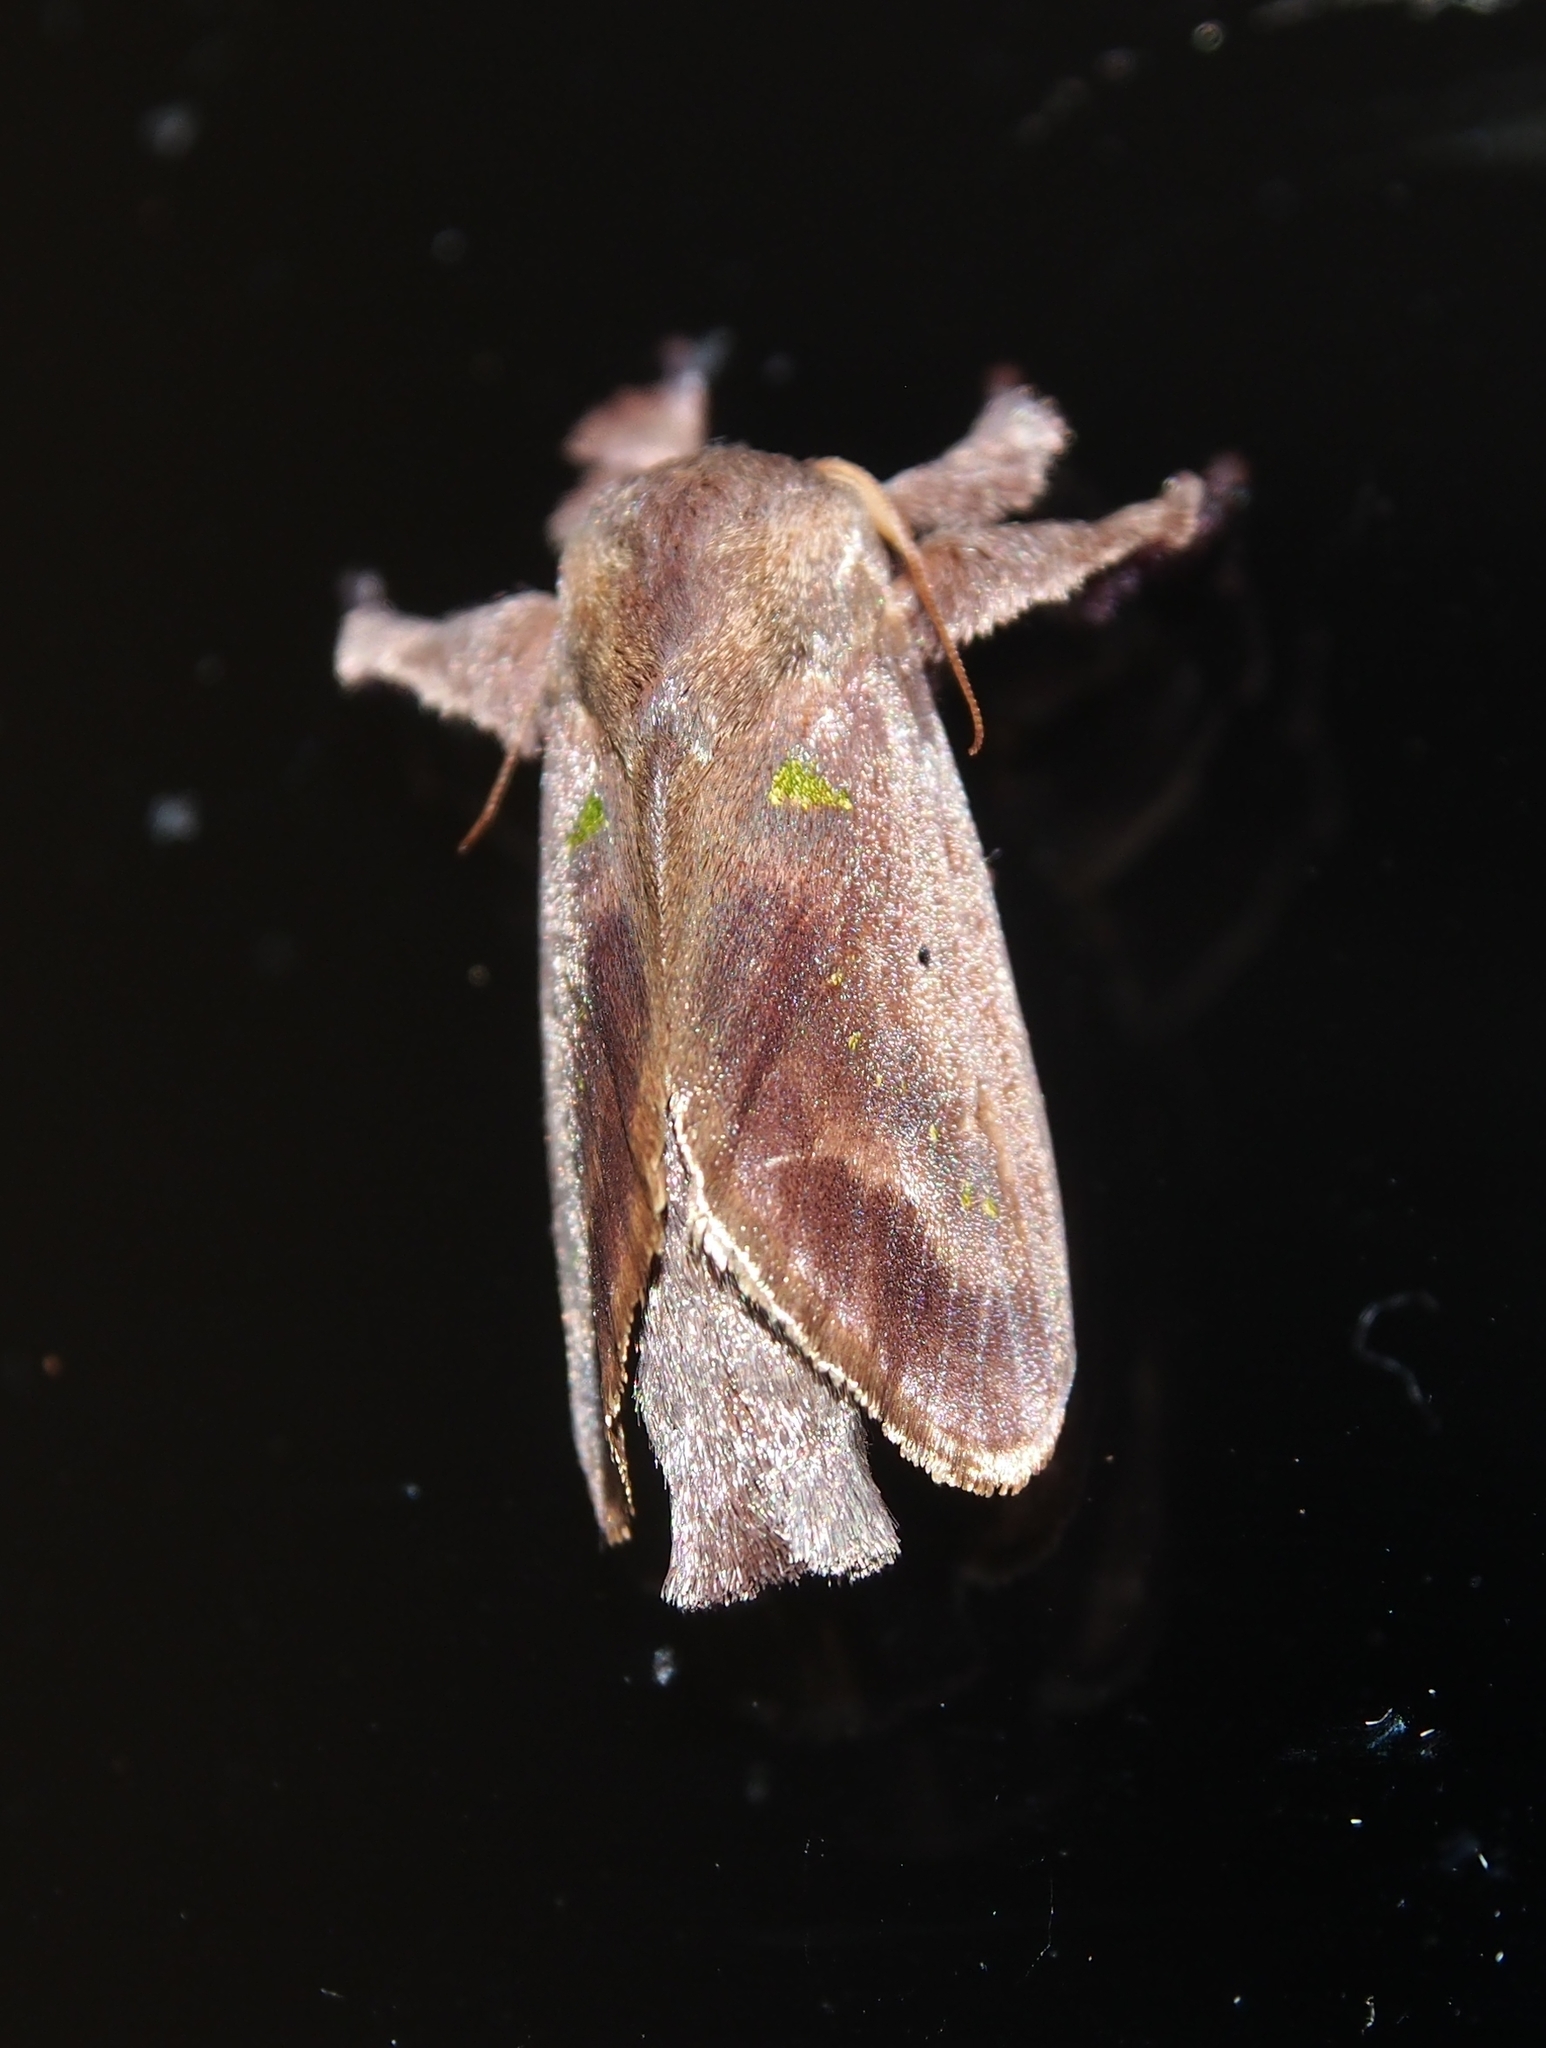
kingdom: Animalia
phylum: Arthropoda
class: Insecta
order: Lepidoptera
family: Limacodidae
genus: Euclea
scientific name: Euclea norba
